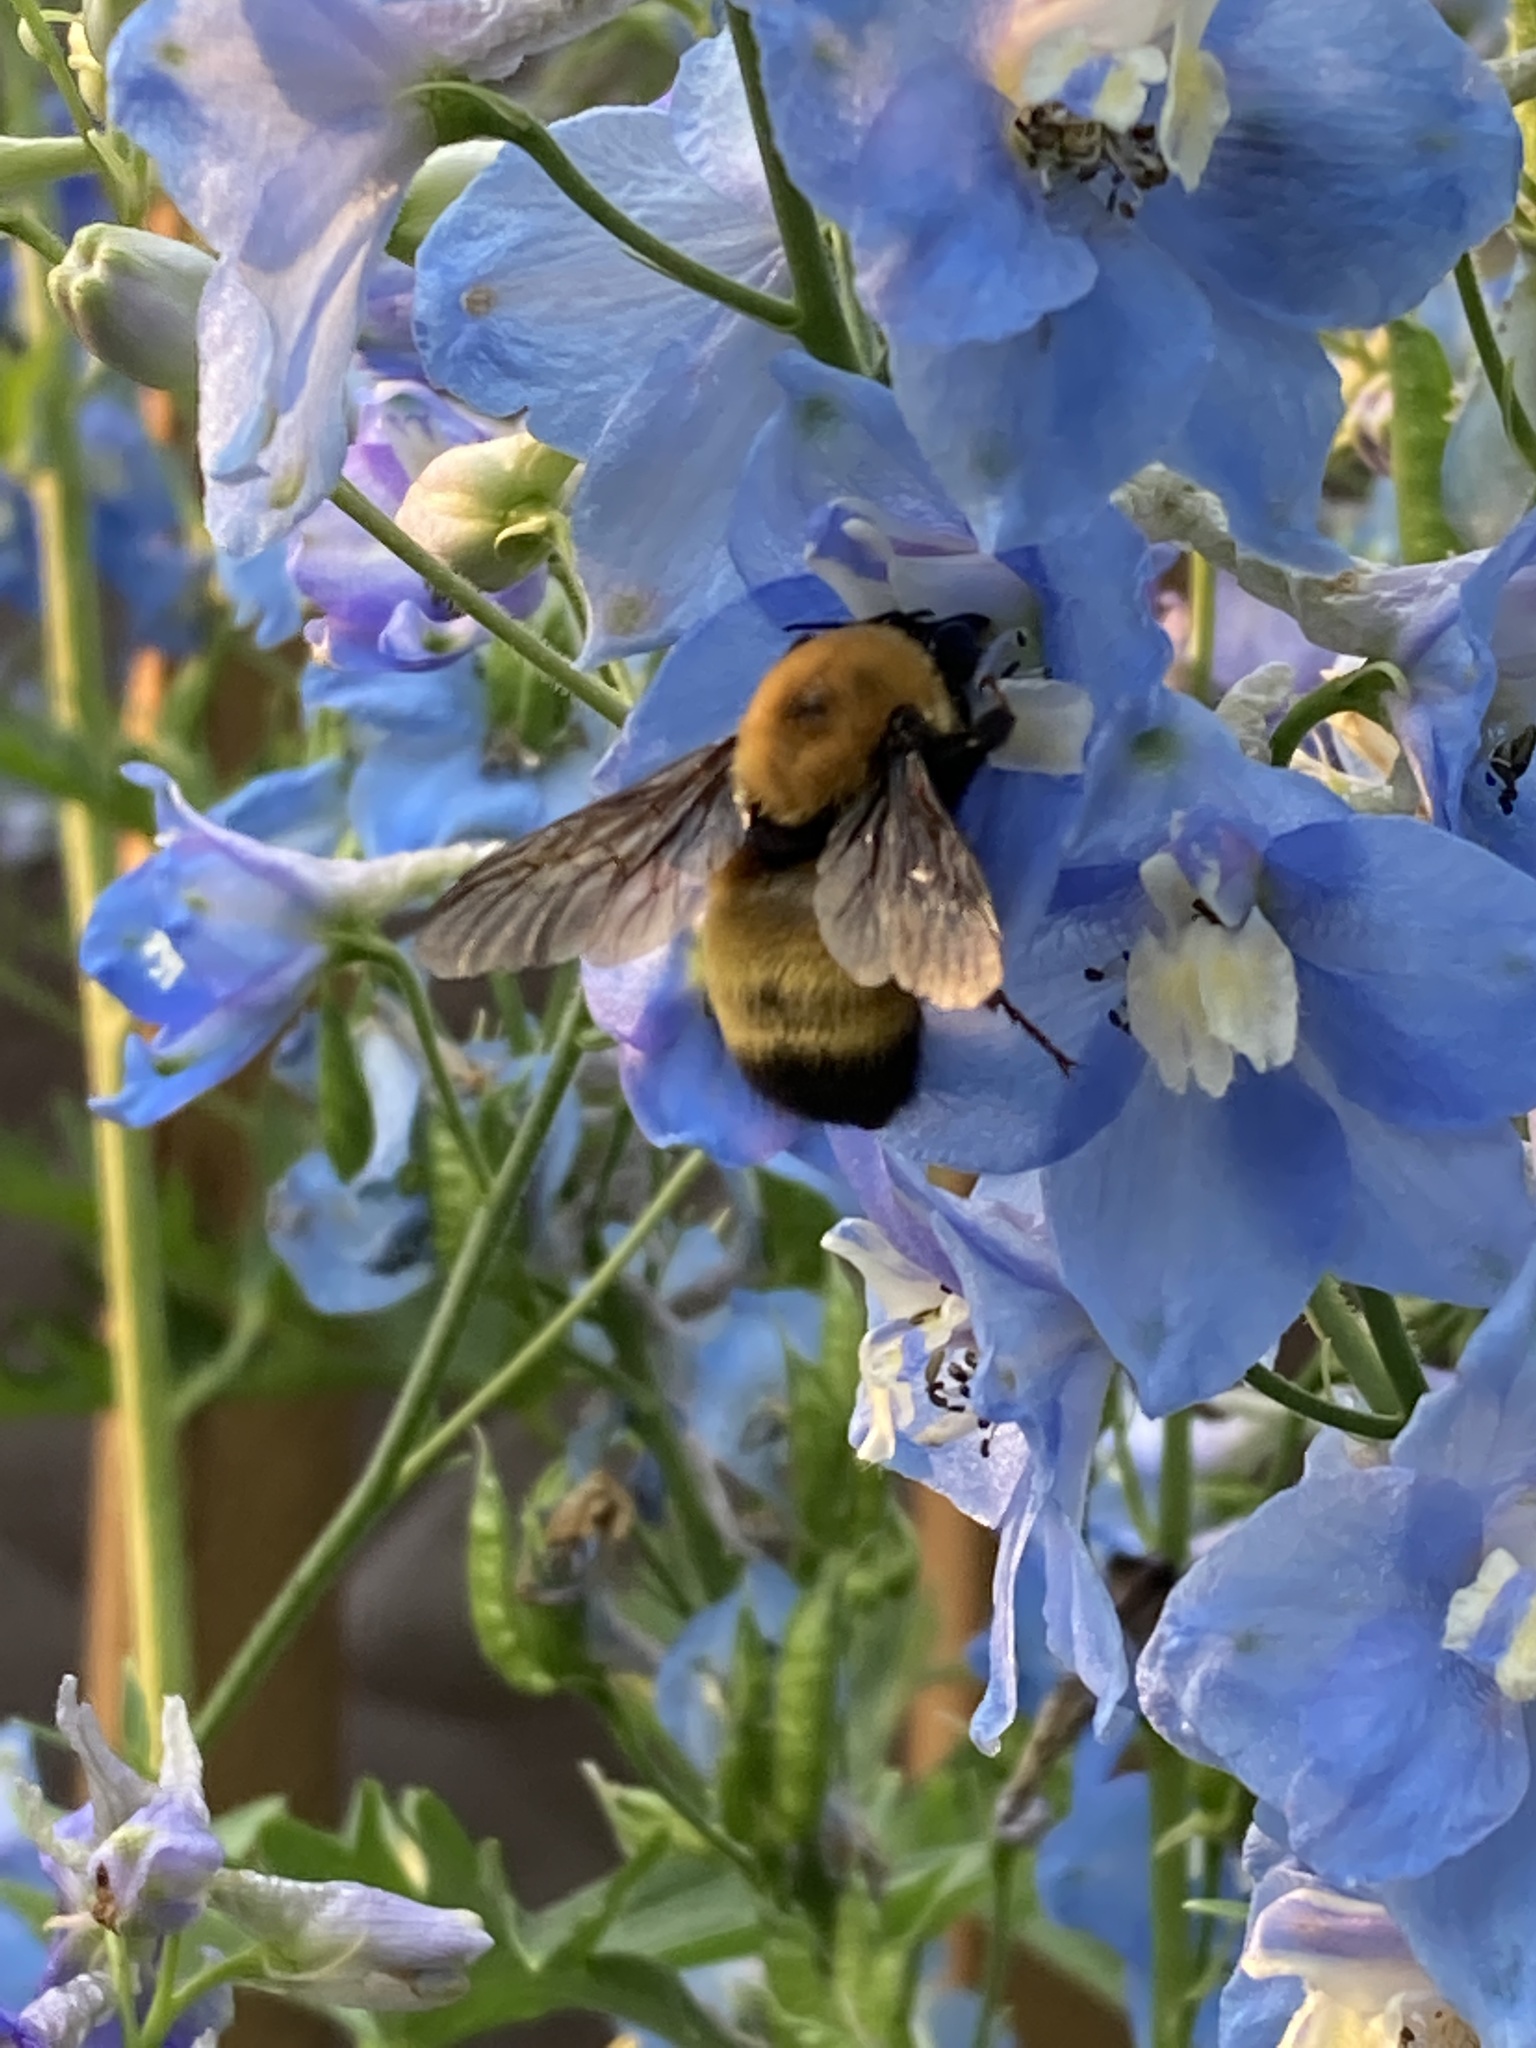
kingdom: Animalia
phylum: Arthropoda
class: Insecta
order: Hymenoptera
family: Apidae
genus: Bombus
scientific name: Bombus nevadensis
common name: Nevada bumble bee
